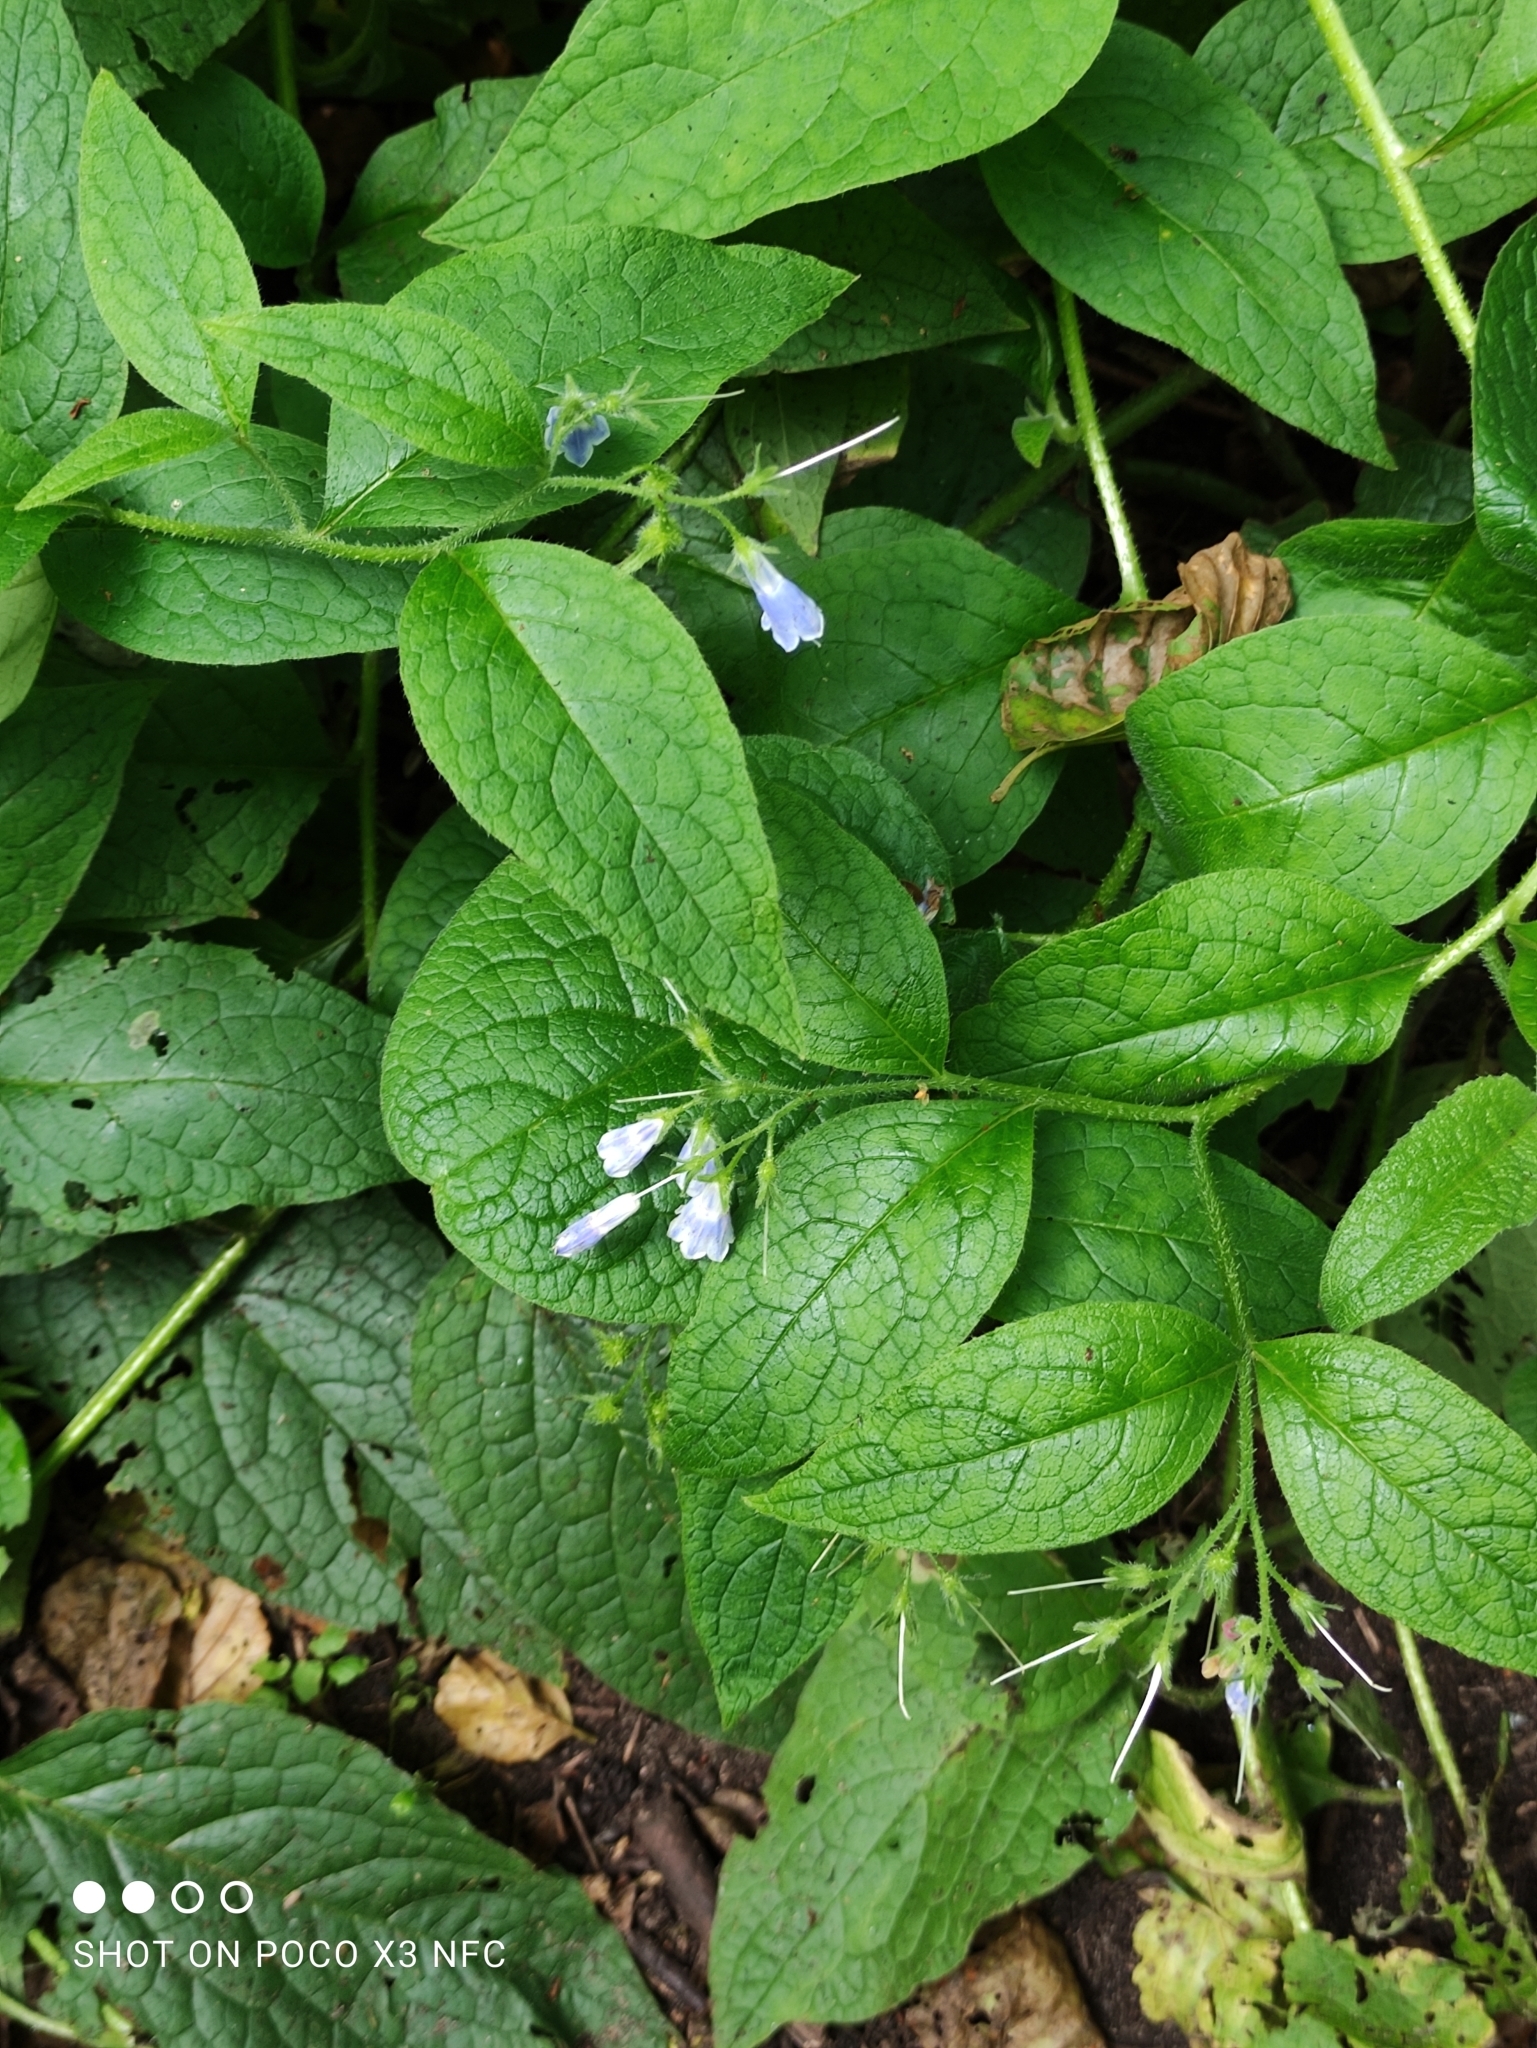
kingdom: Plantae
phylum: Tracheophyta
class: Magnoliopsida
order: Boraginales
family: Boraginaceae
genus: Symphytum
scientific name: Symphytum asperum
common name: Prickly comfrey
